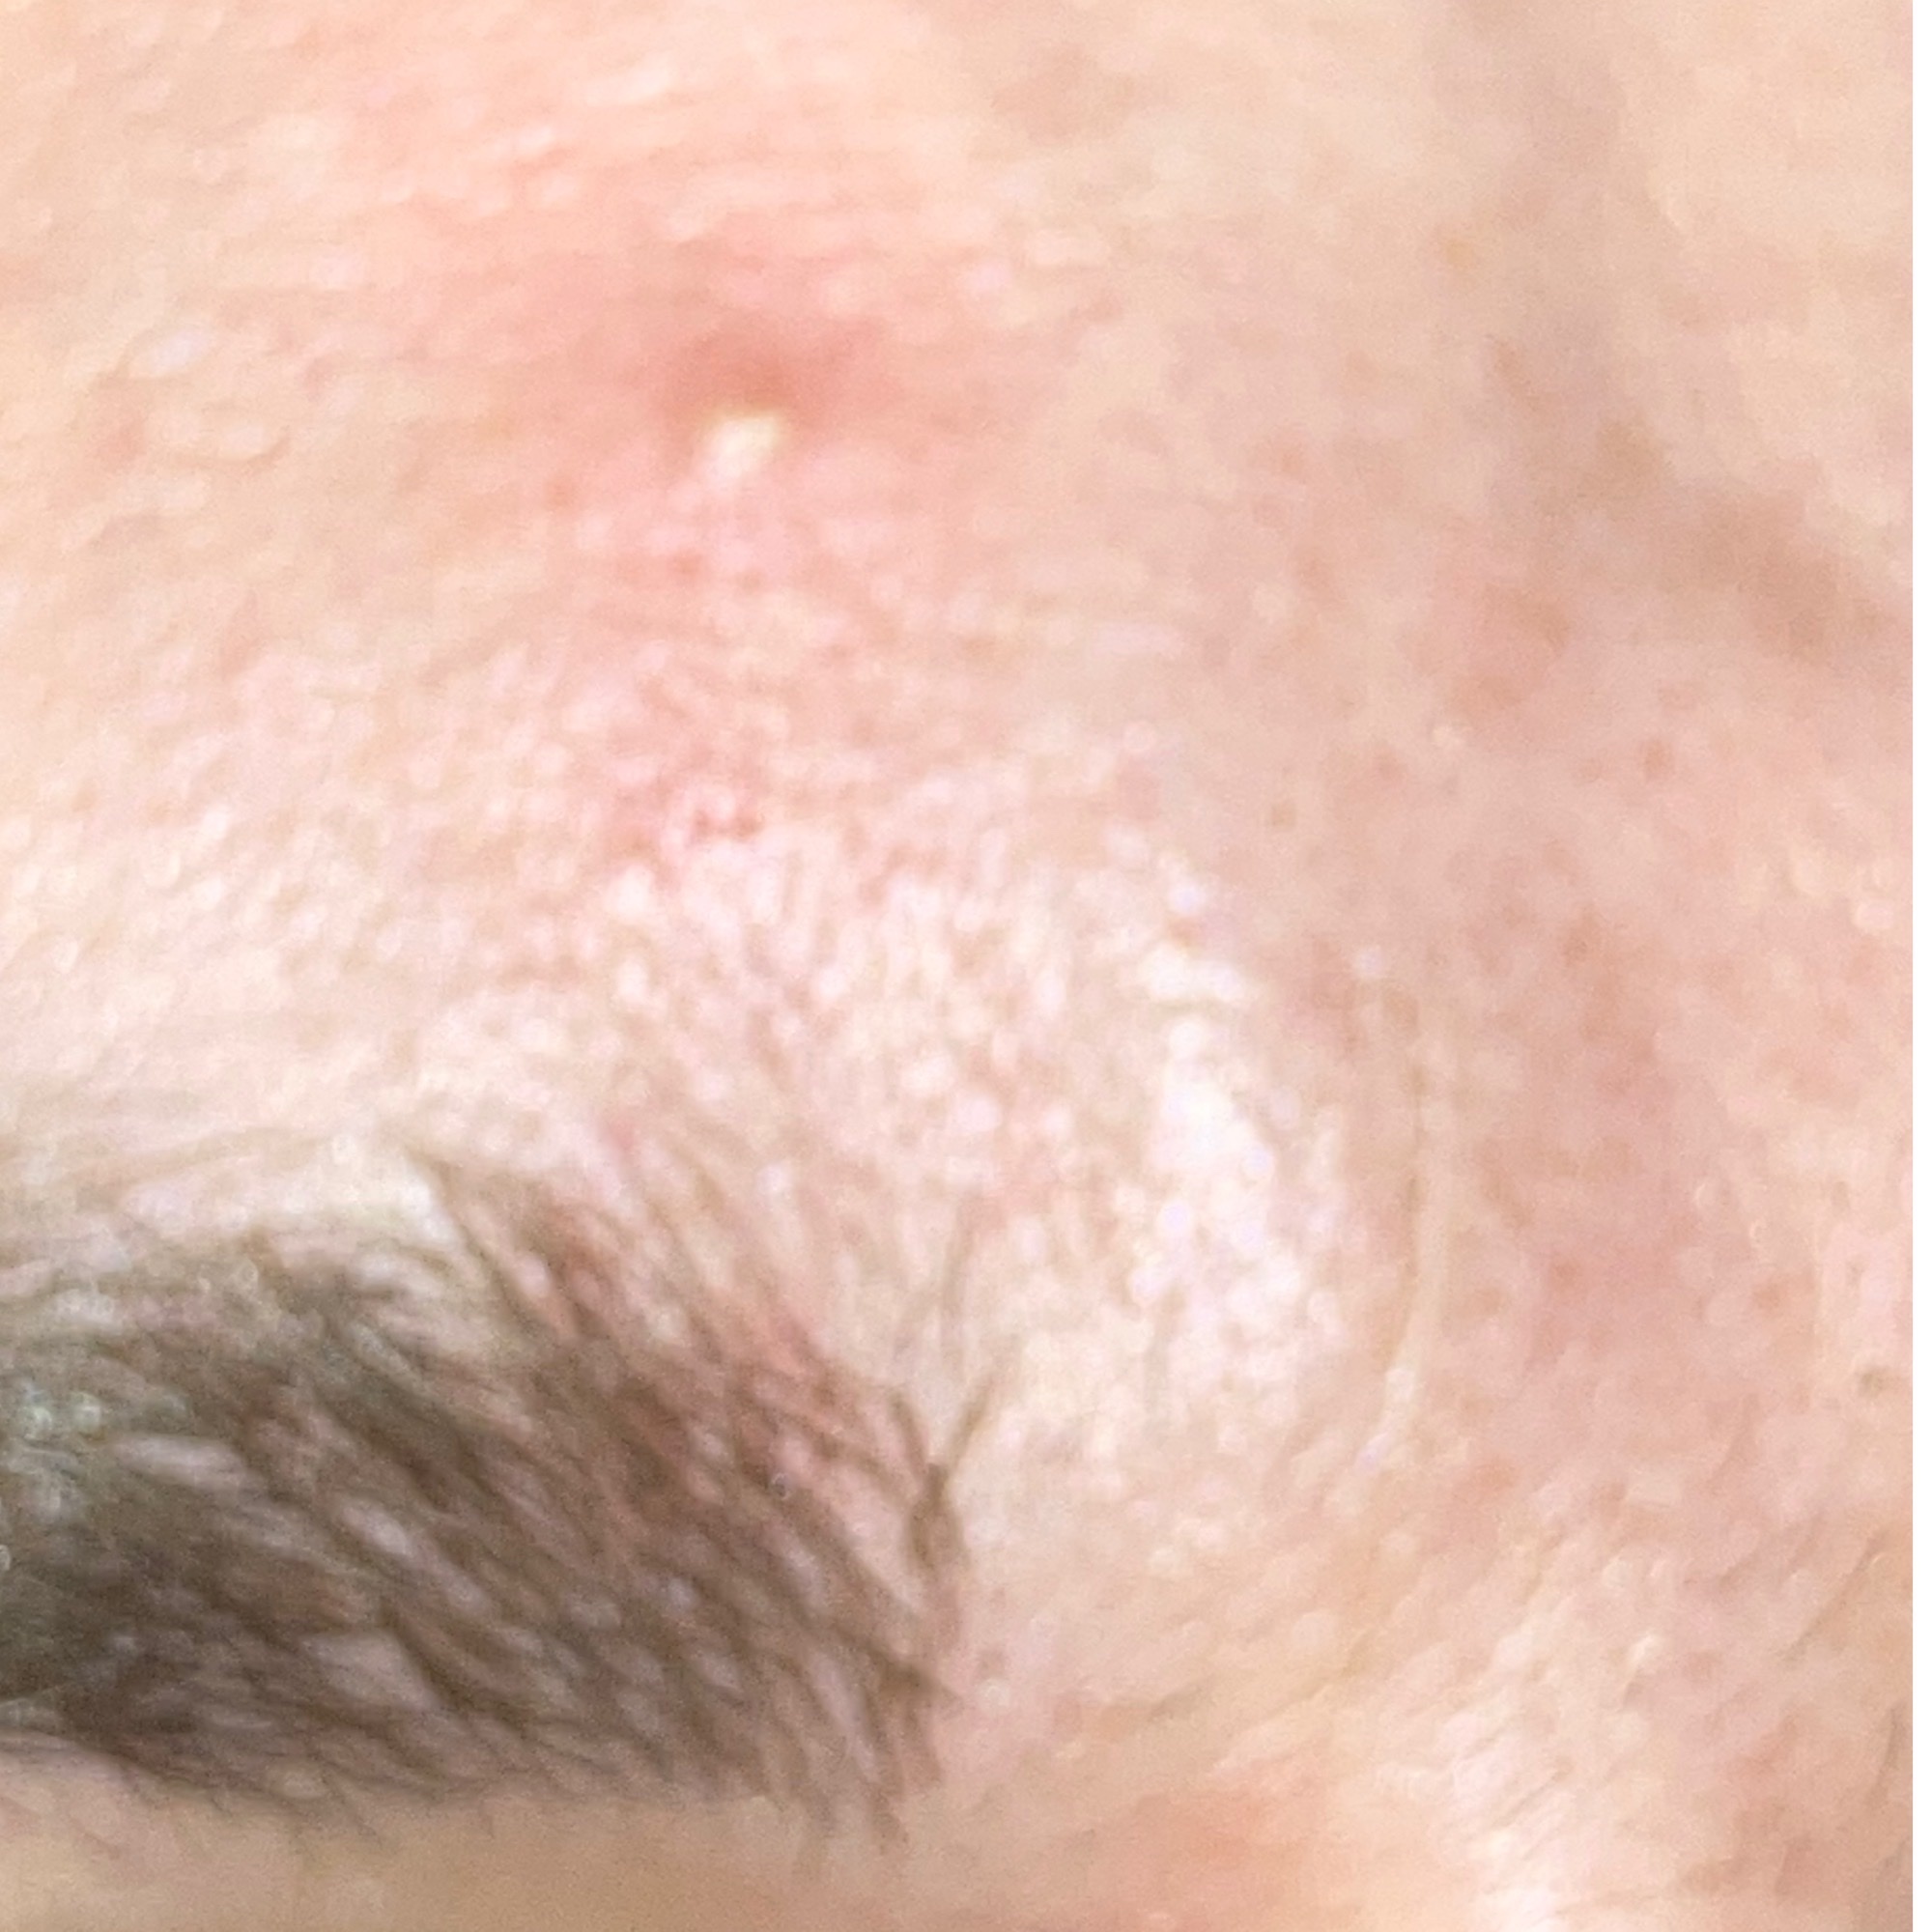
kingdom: Bacteria
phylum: Actinobacteriota
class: Actinomycetia
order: Propionibacteriales
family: Propionibacteriaceae
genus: Cutibacterium
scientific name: Cutibacterium acnes
